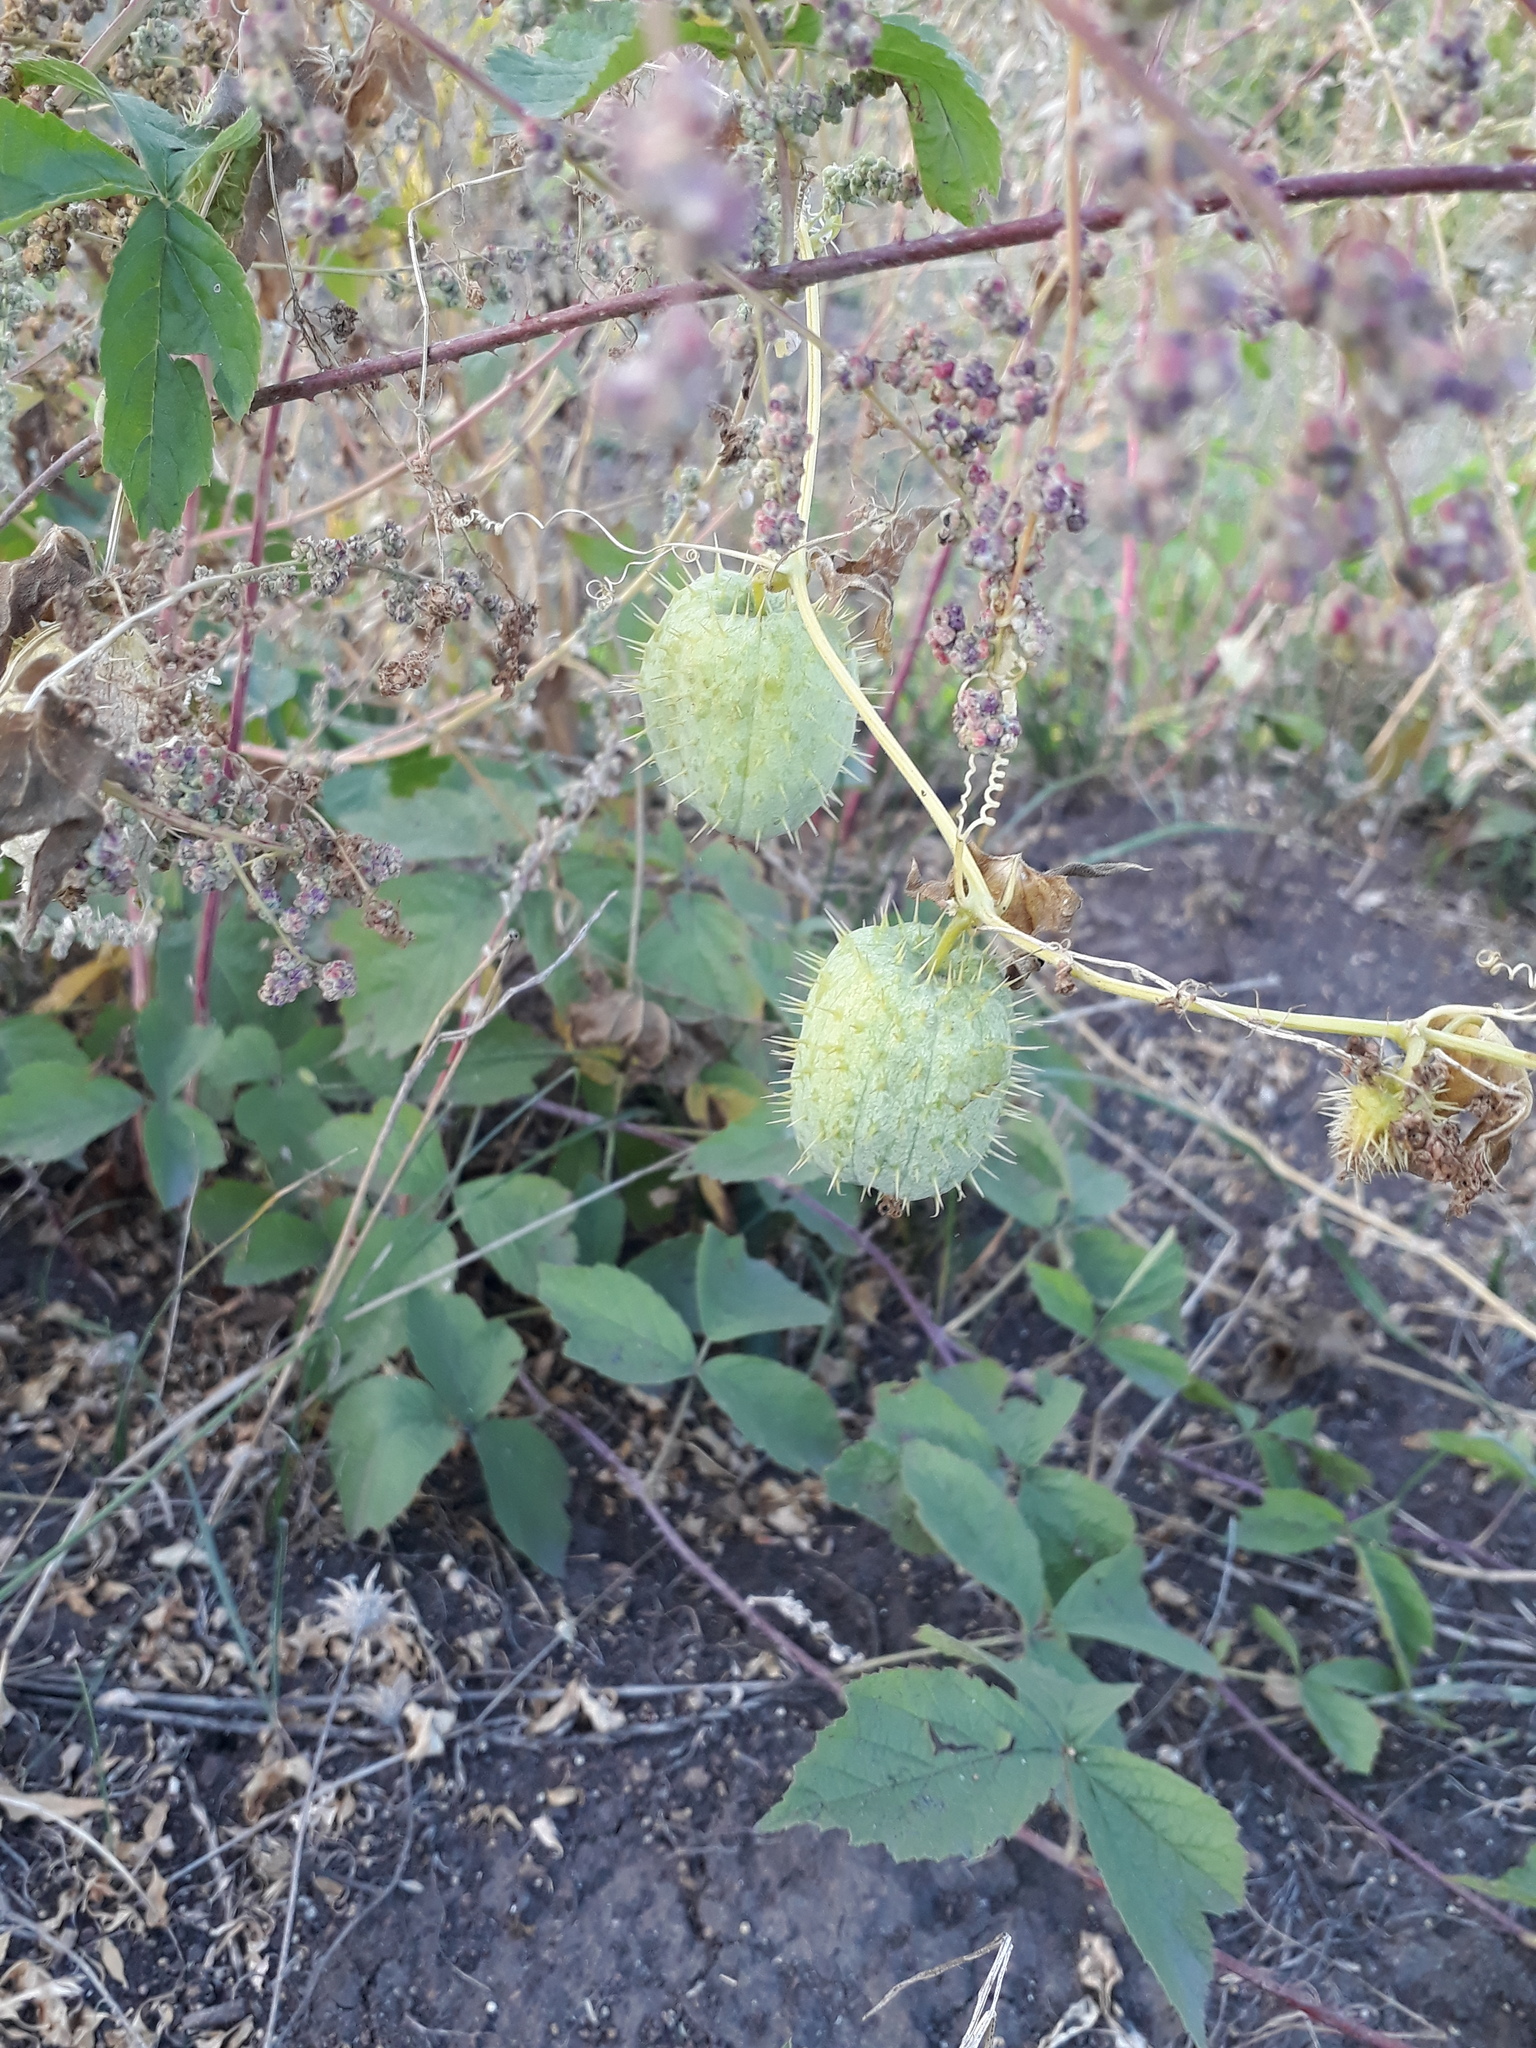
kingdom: Plantae
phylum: Tracheophyta
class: Magnoliopsida
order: Cucurbitales
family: Cucurbitaceae
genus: Echinocystis
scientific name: Echinocystis lobata
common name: Wild cucumber
